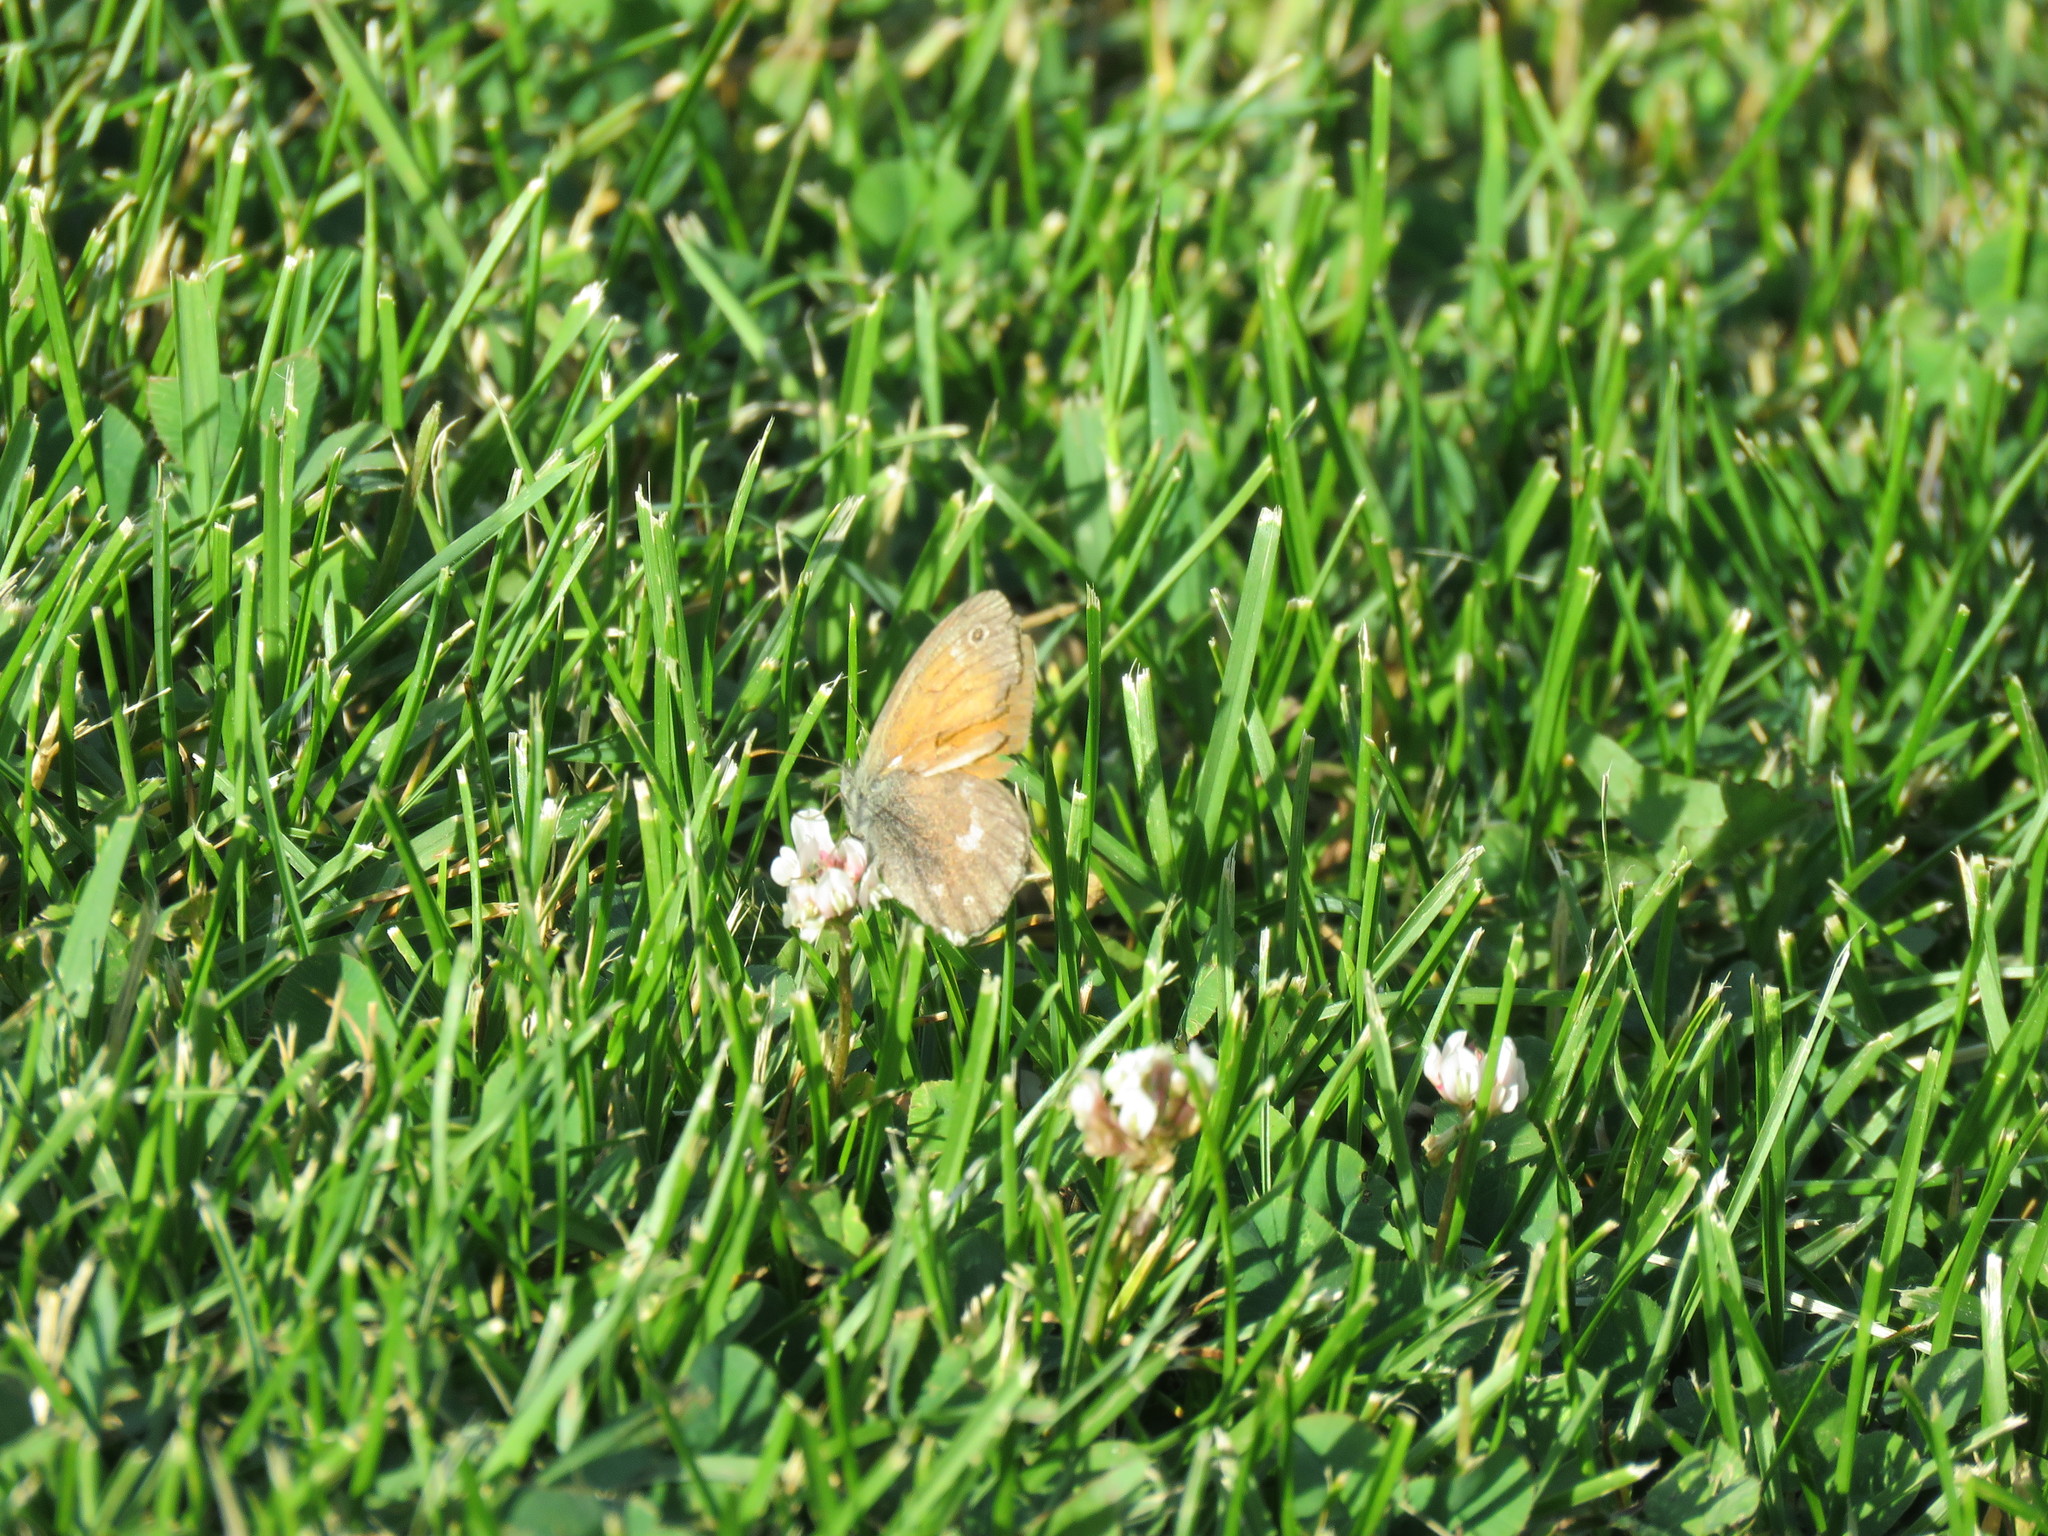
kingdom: Animalia
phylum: Arthropoda
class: Insecta
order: Lepidoptera
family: Nymphalidae
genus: Coenonympha
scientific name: Coenonympha california
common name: Common ringlet
